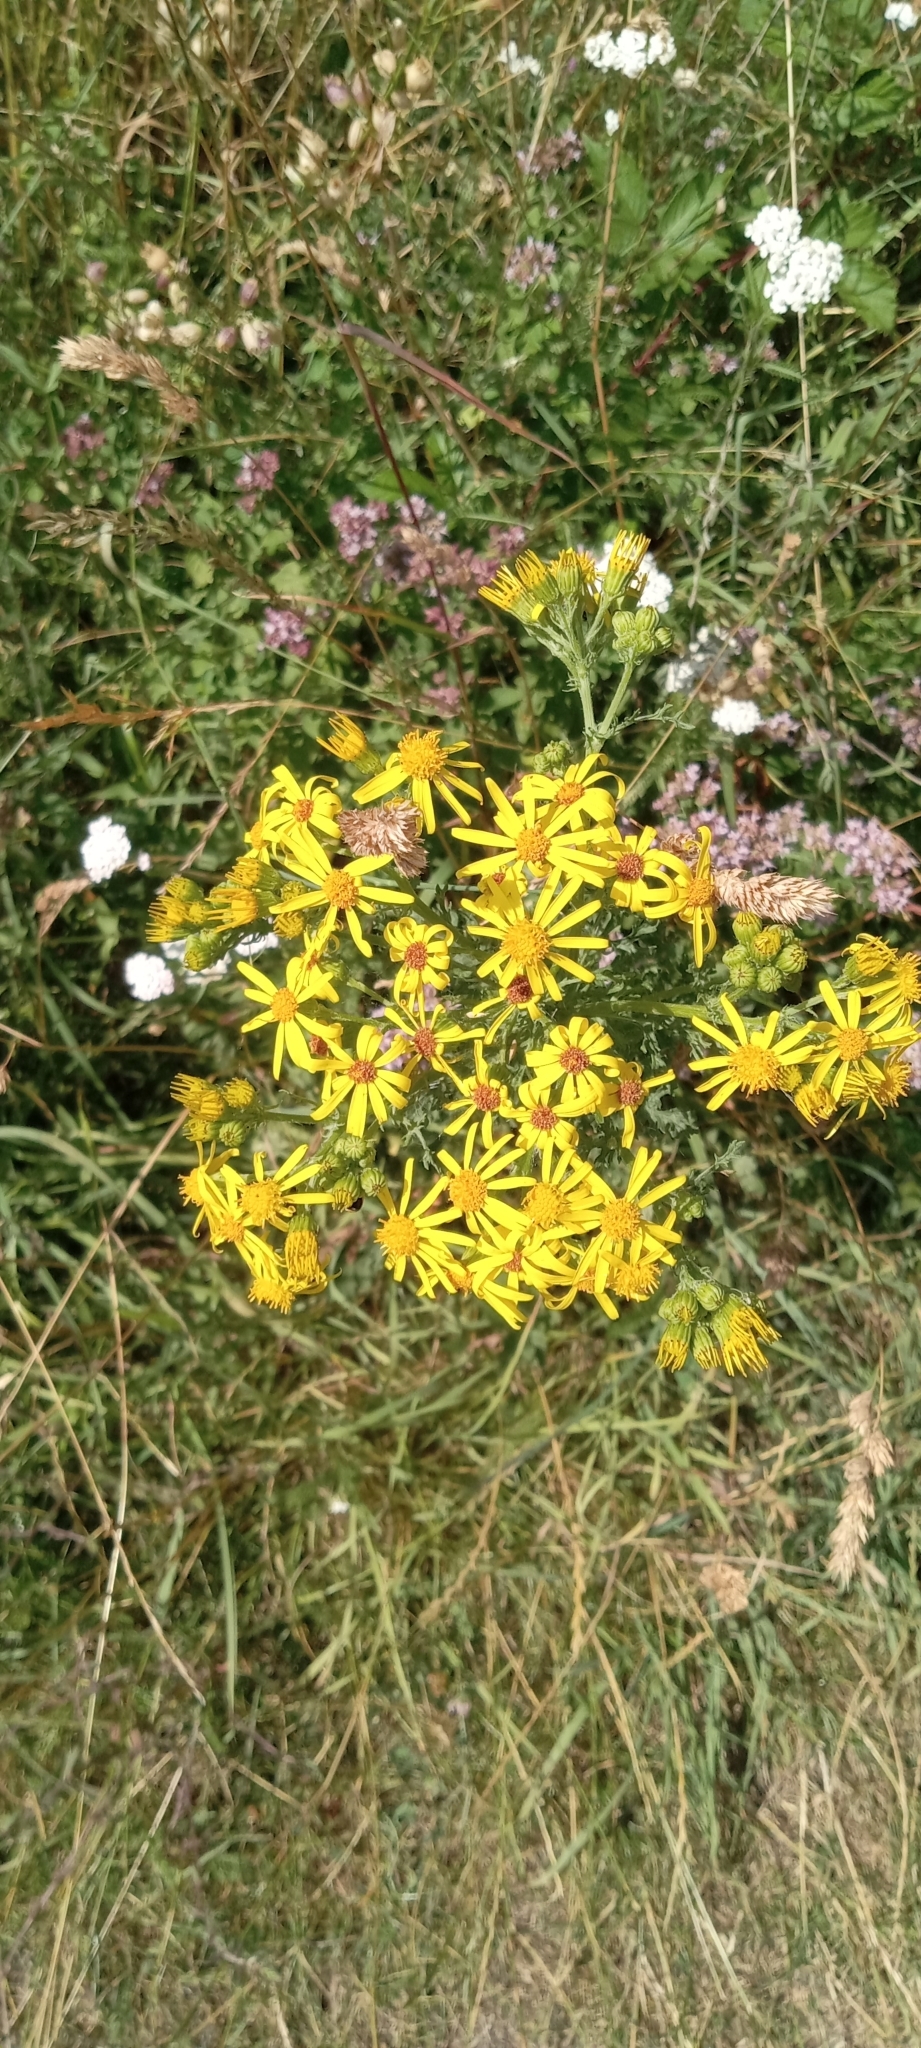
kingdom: Plantae
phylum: Tracheophyta
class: Magnoliopsida
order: Asterales
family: Asteraceae
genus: Jacobaea
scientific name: Jacobaea vulgaris
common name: Stinking willie
